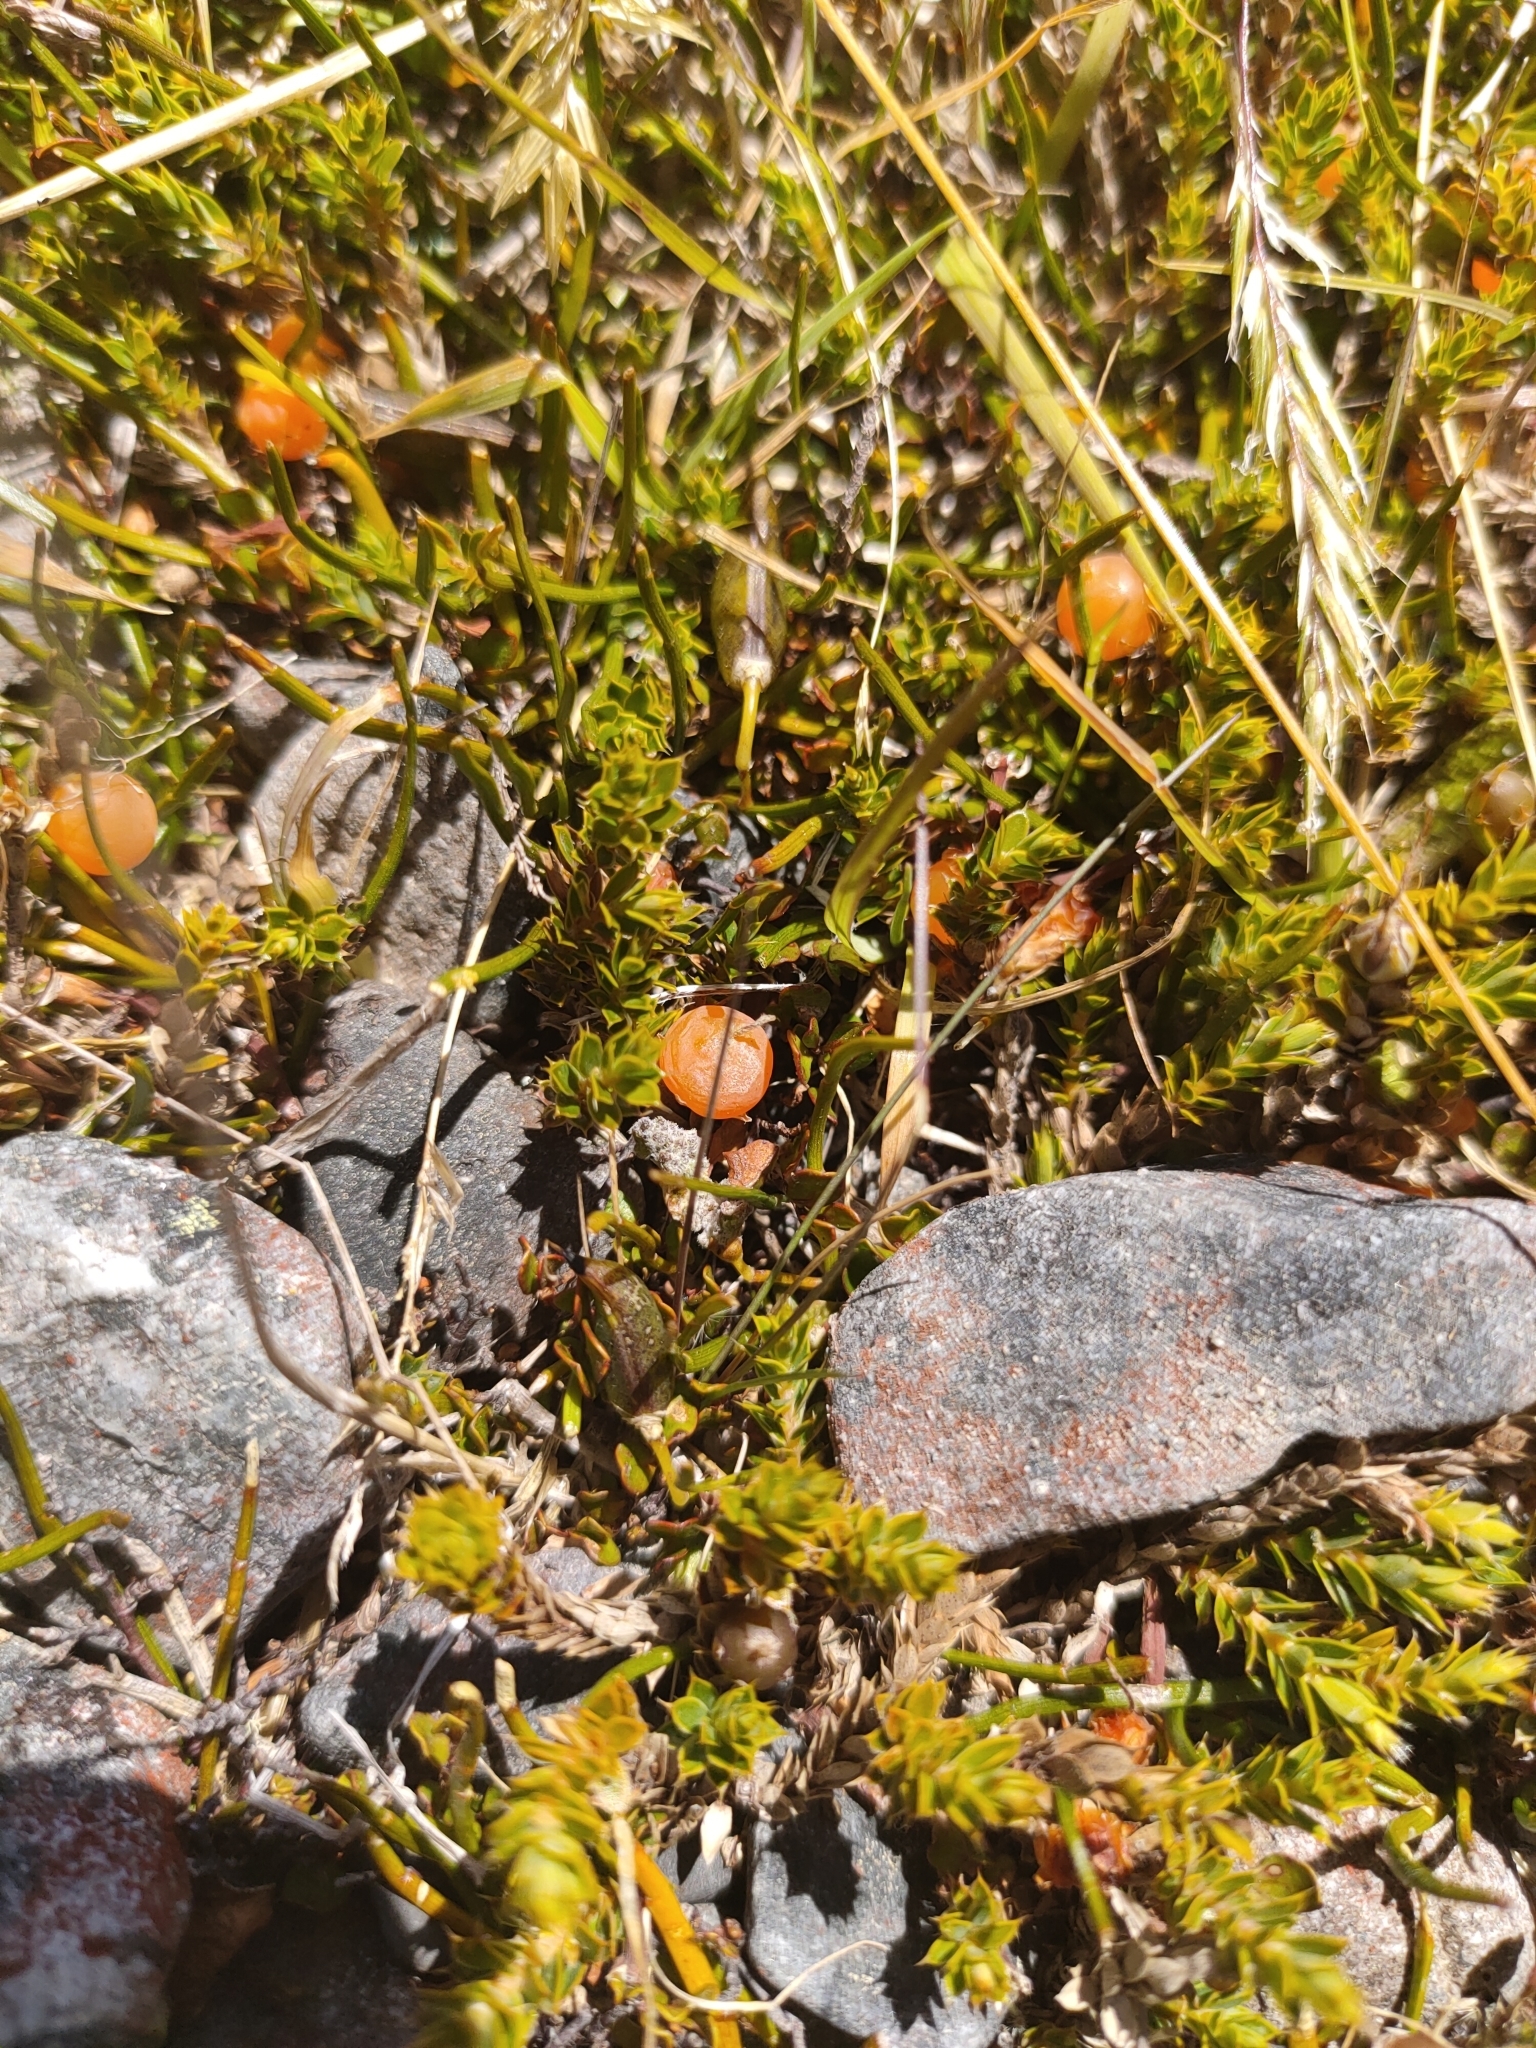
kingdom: Plantae
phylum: Tracheophyta
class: Magnoliopsida
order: Ericales
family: Ericaceae
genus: Styphelia
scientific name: Styphelia nesophila
